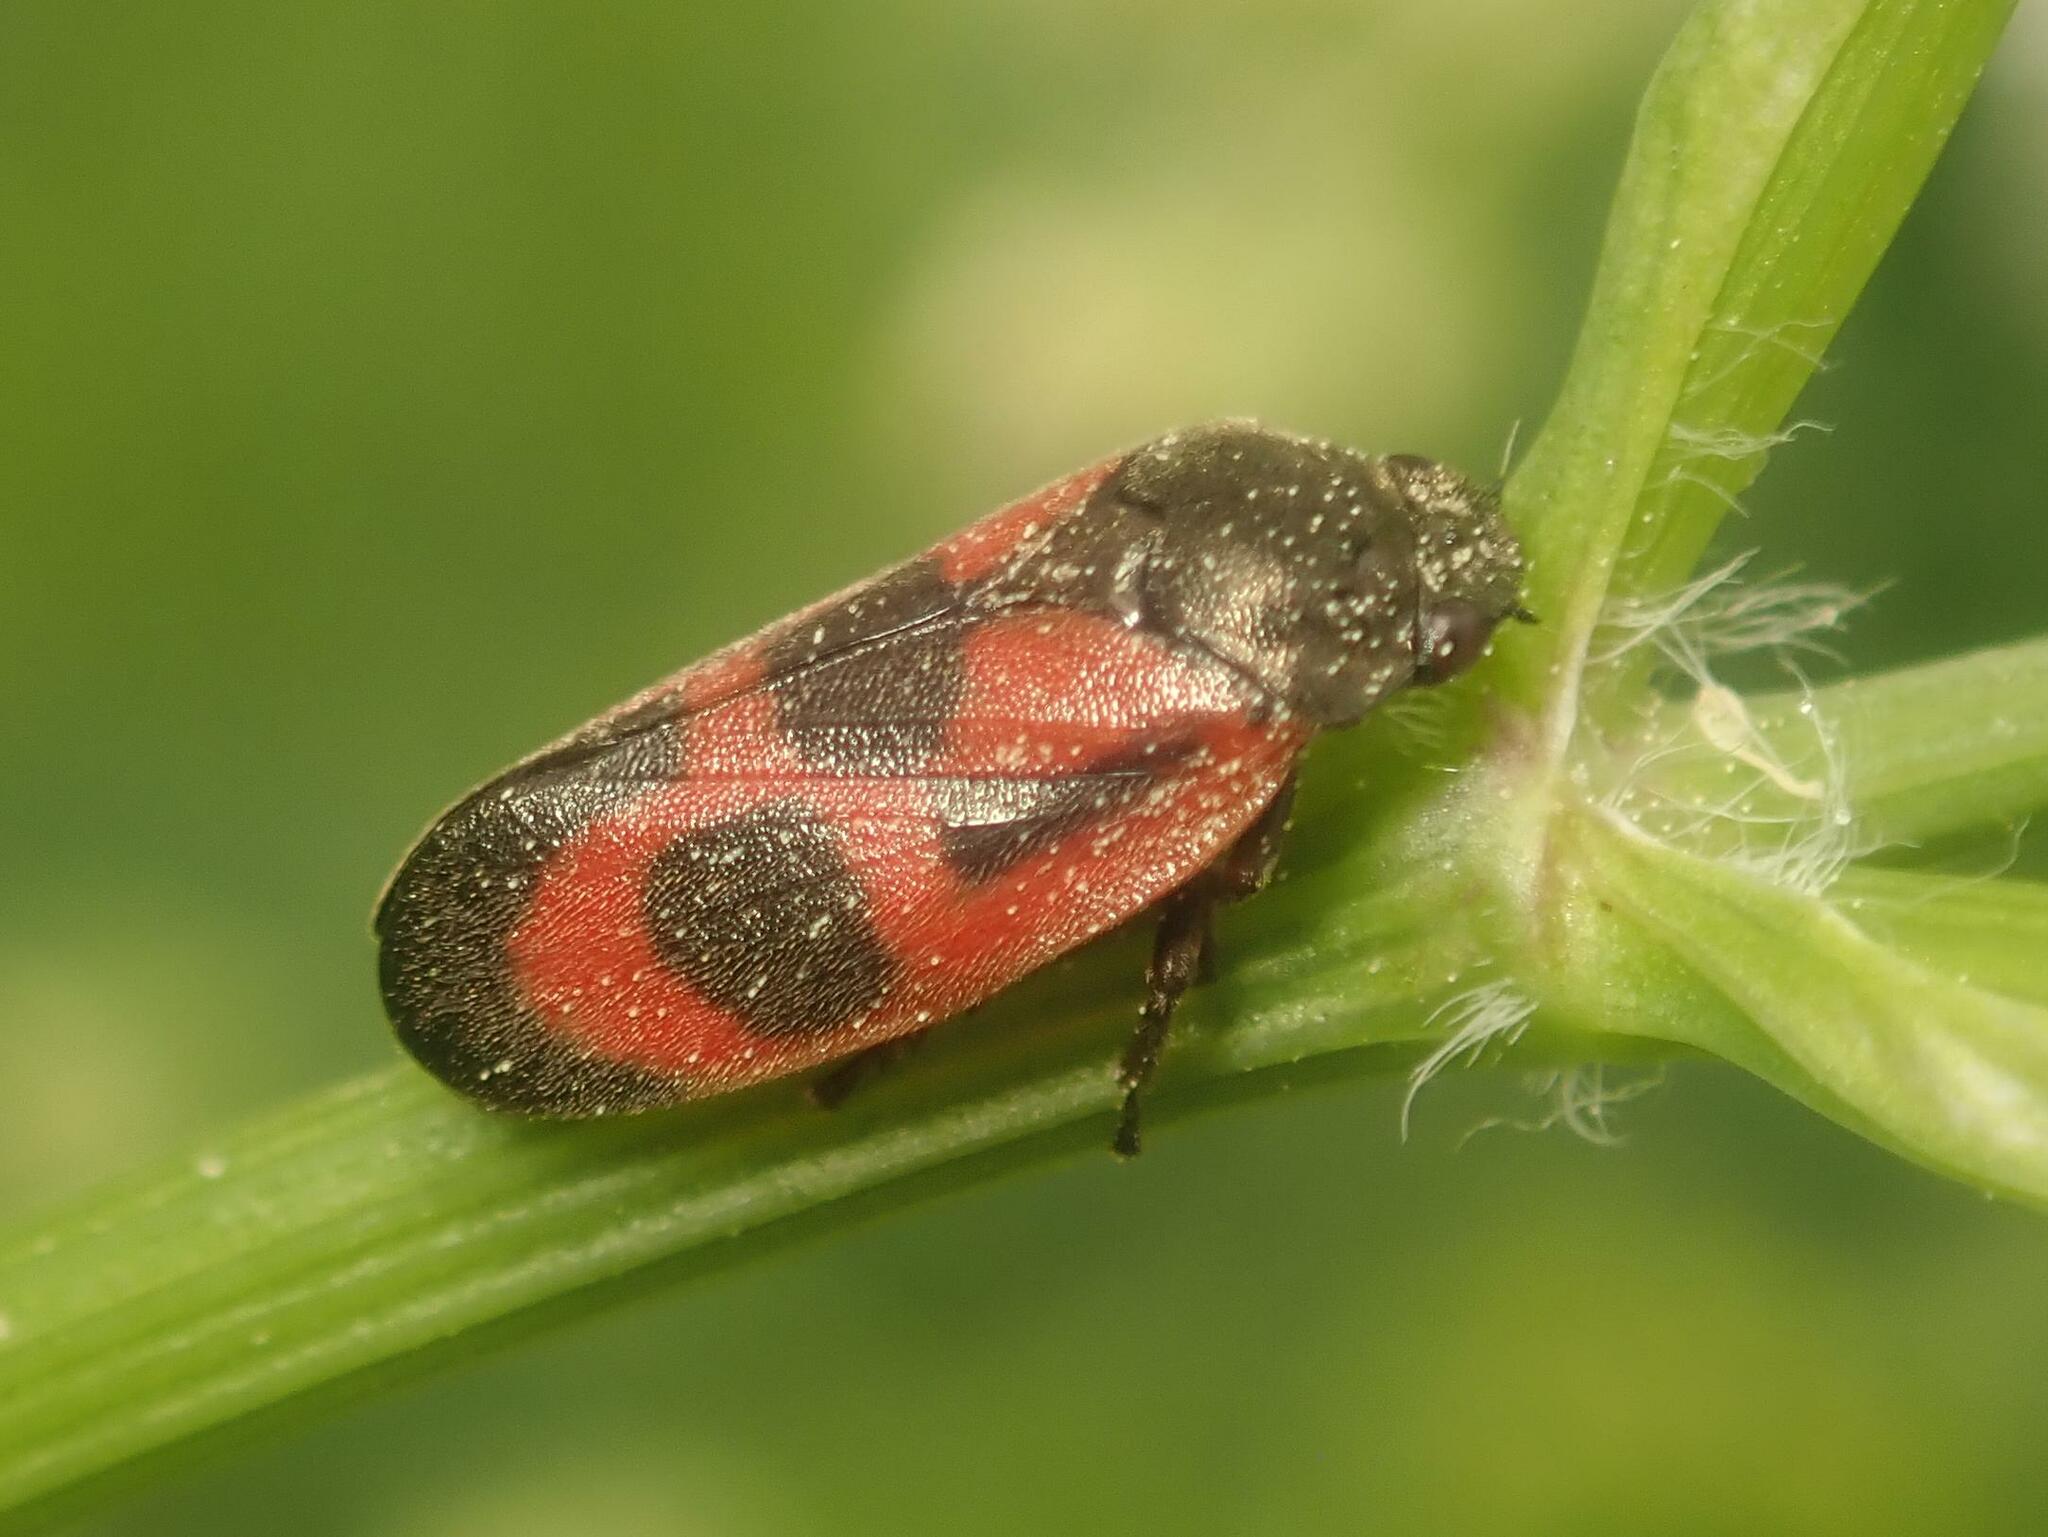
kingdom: Animalia
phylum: Arthropoda
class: Insecta
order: Hemiptera
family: Cercopidae
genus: Haematoloma
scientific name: Haematoloma dorsata
